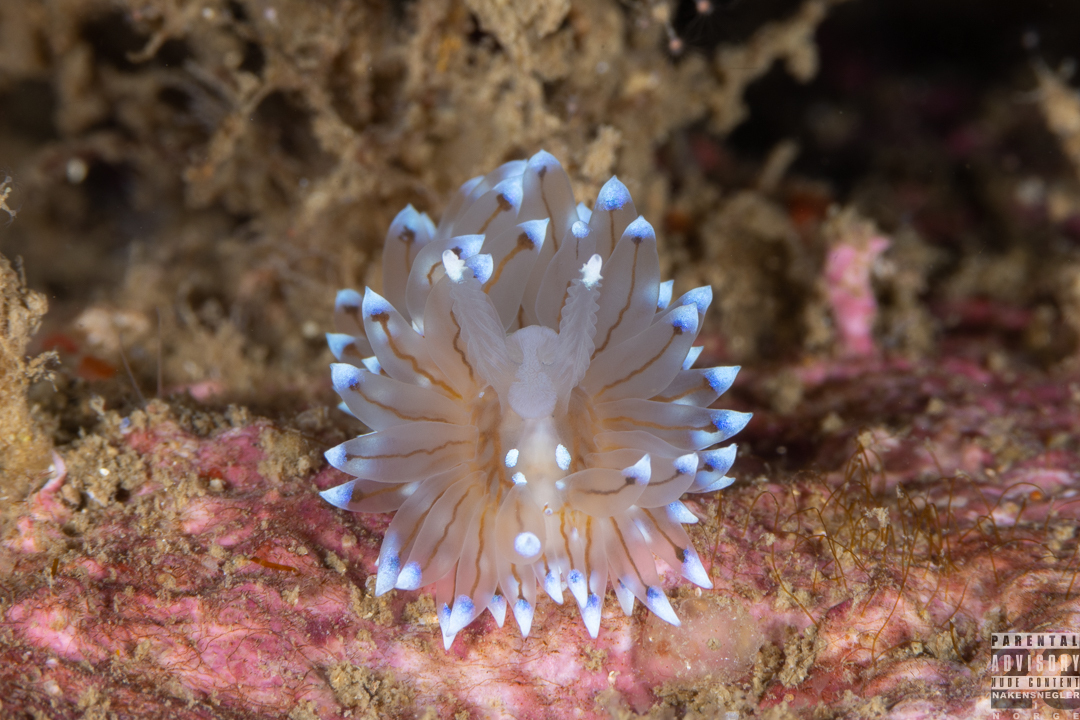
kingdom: Animalia
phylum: Mollusca
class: Gastropoda
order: Nudibranchia
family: Janolidae
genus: Antiopella
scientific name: Antiopella cristata
